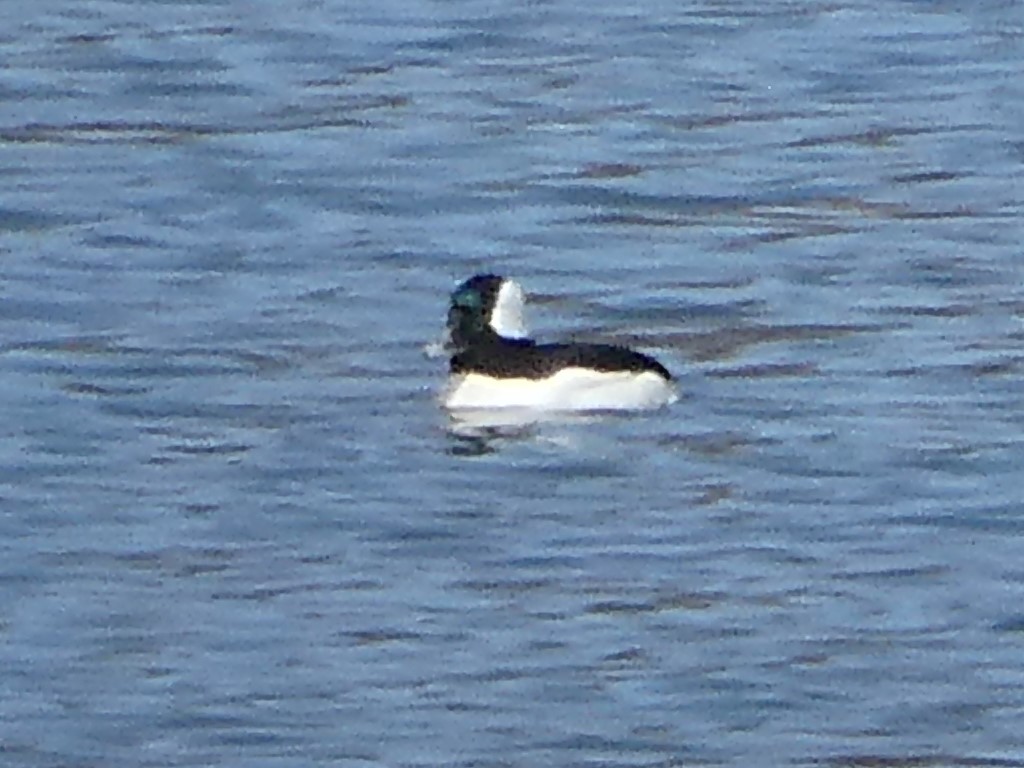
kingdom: Animalia
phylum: Chordata
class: Aves
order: Anseriformes
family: Anatidae
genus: Bucephala
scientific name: Bucephala albeola
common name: Bufflehead
